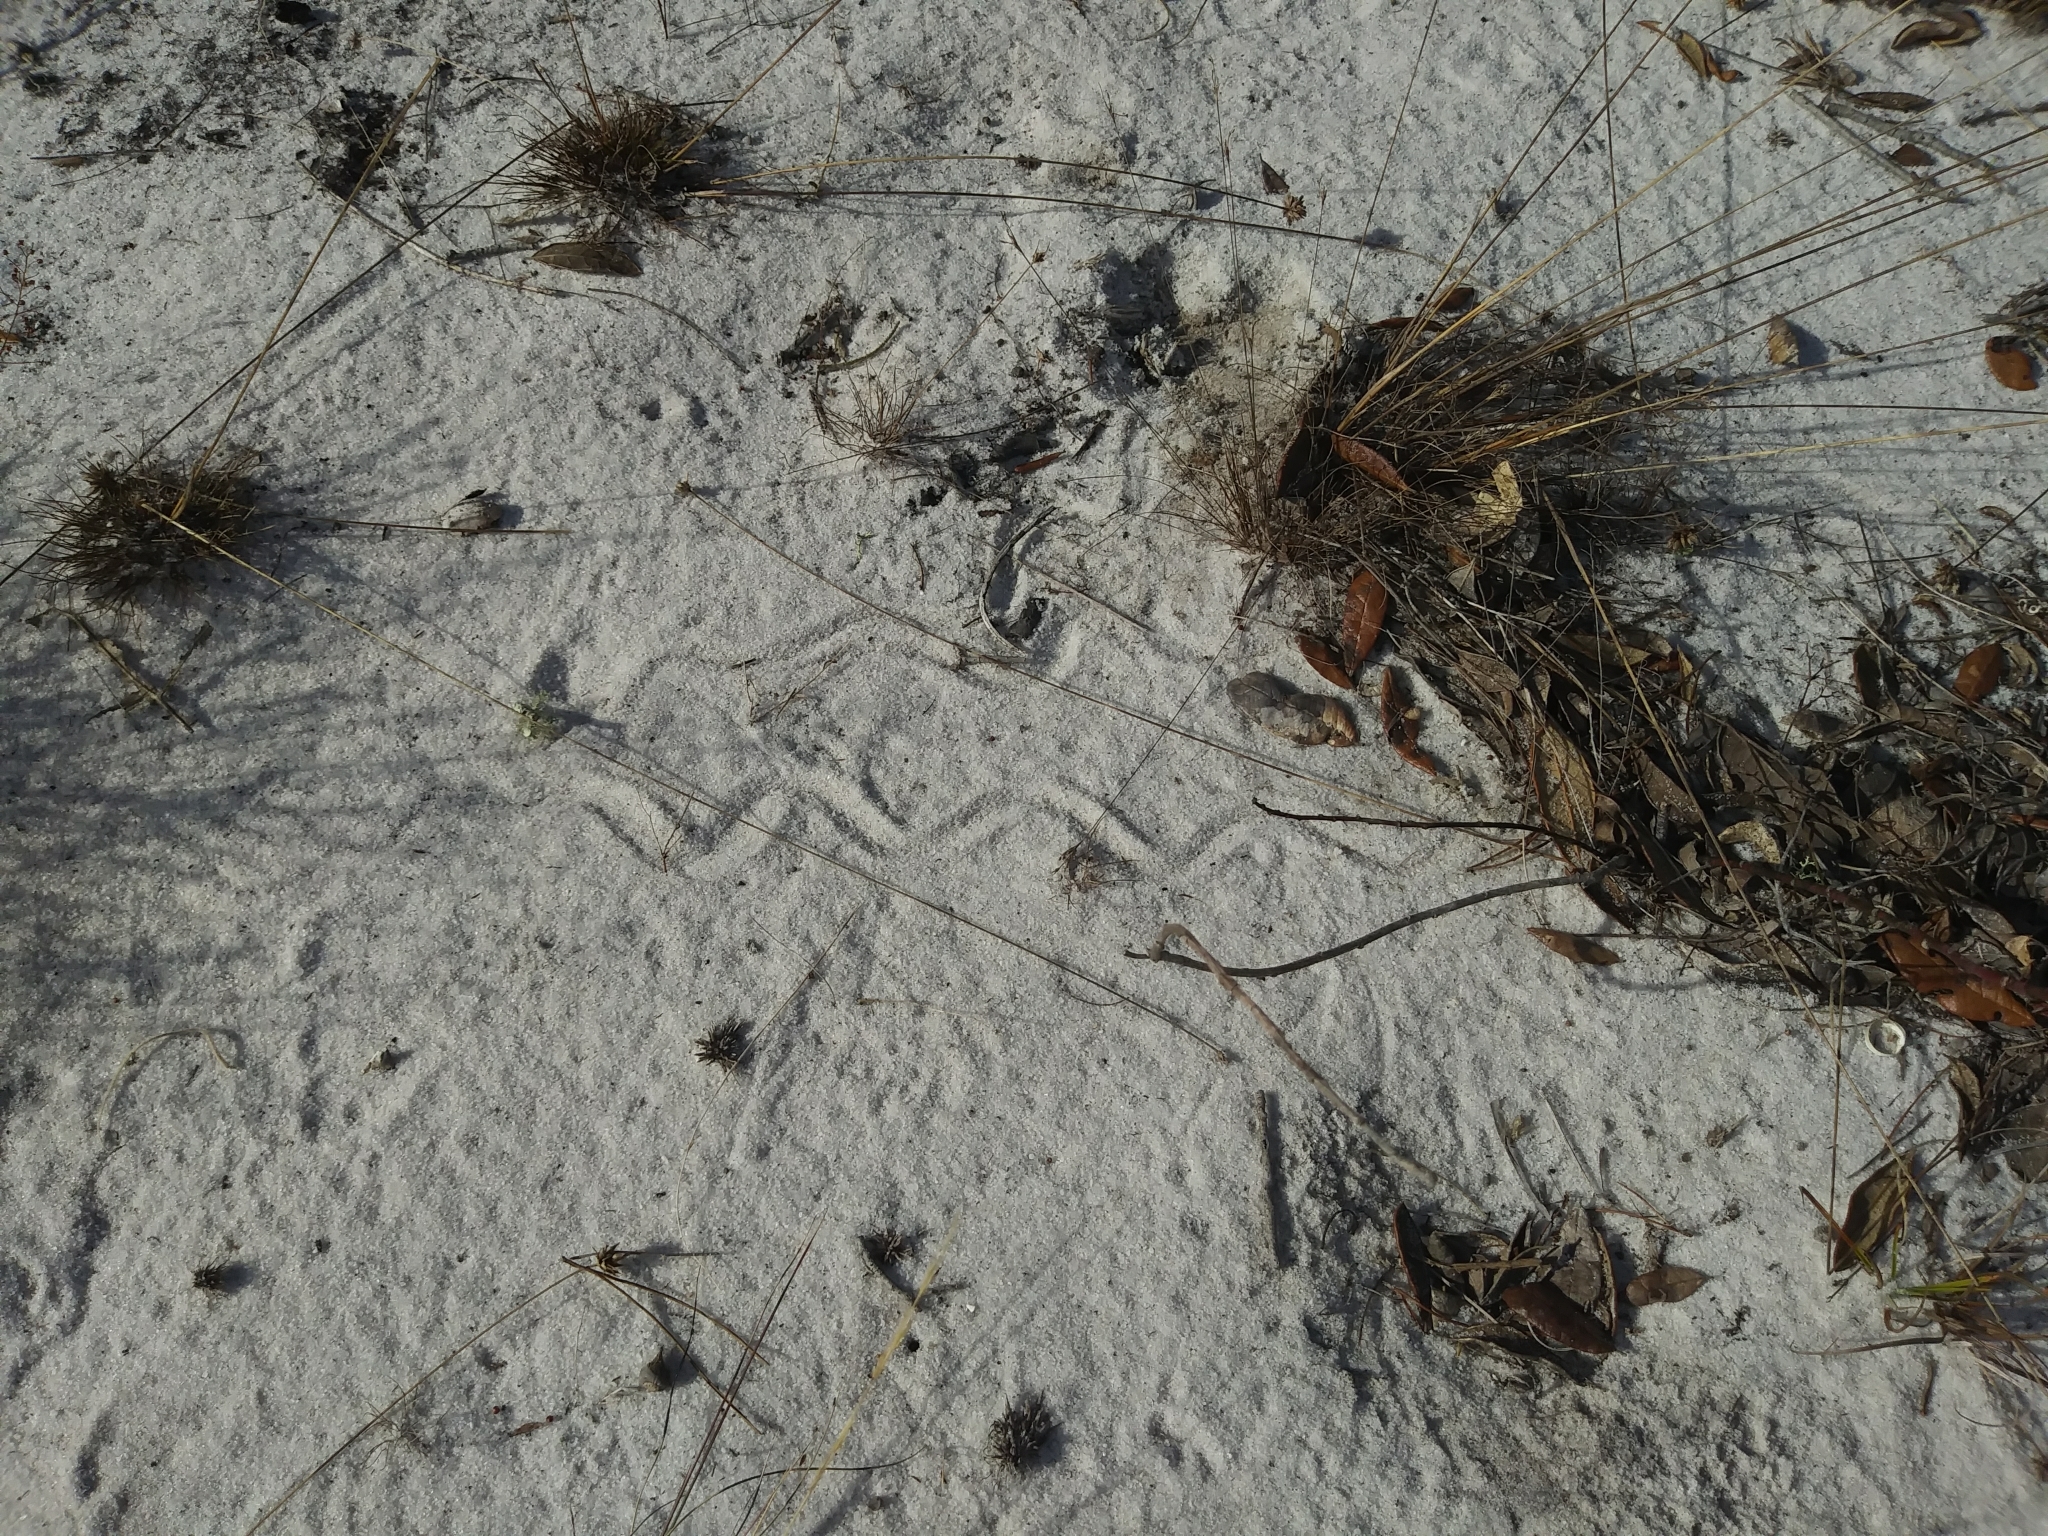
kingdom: Animalia
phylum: Chordata
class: Squamata
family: Scincidae
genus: Plestiodon
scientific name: Plestiodon reynoldsi
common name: Florida sand skink
